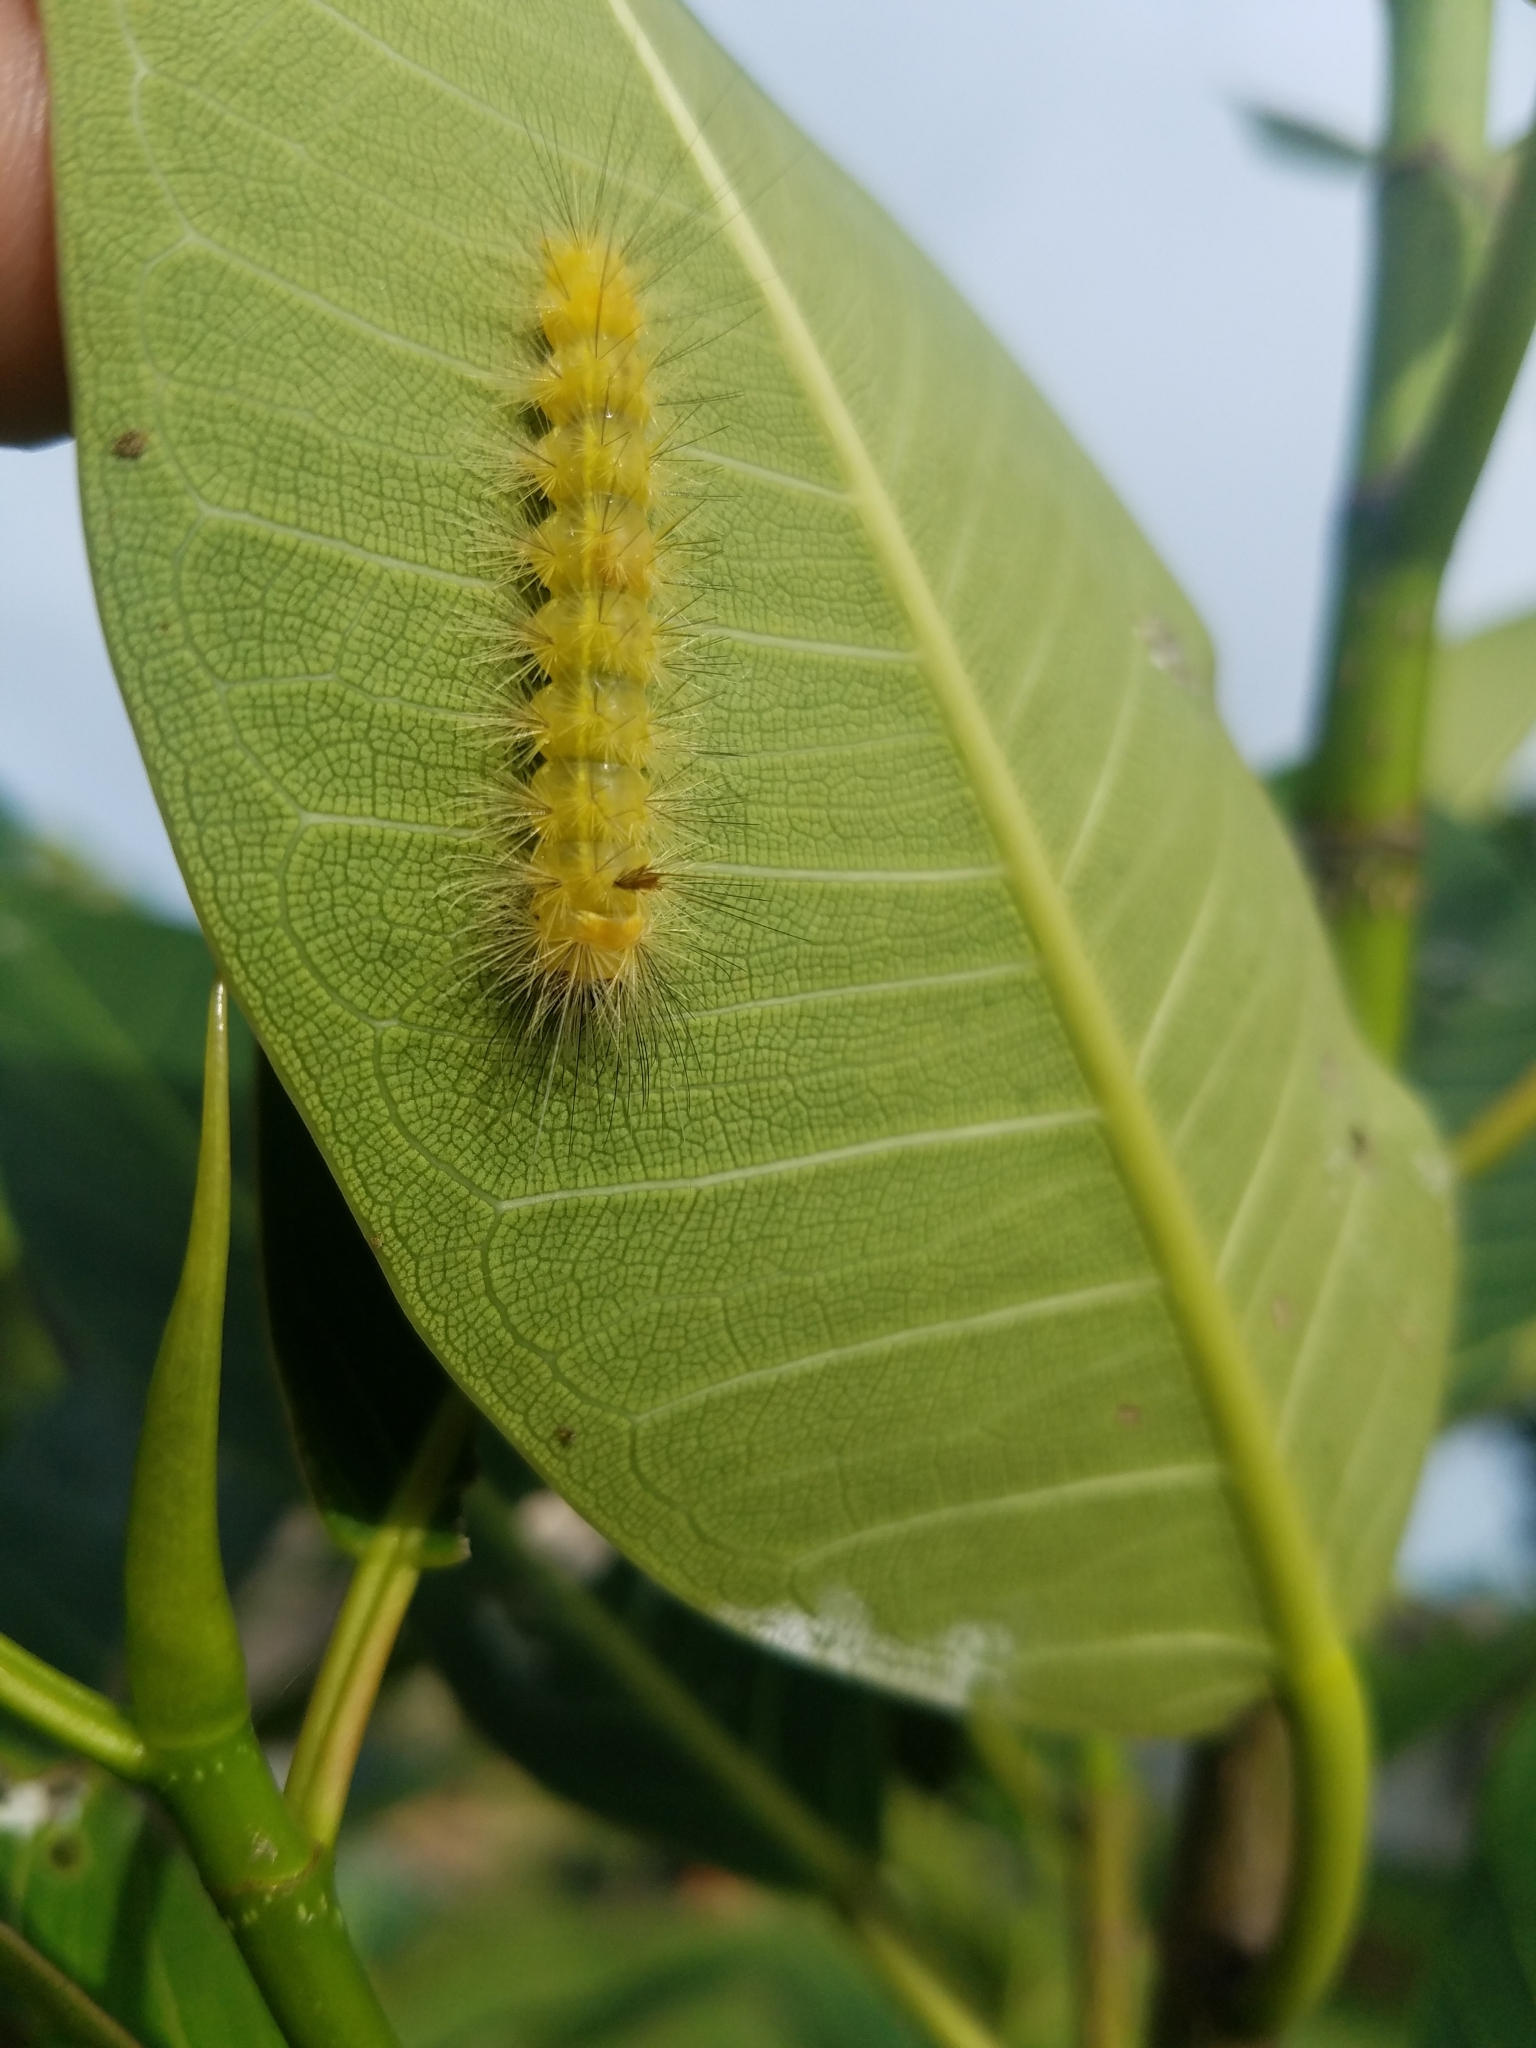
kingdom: Animalia
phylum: Arthropoda
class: Insecta
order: Lepidoptera
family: Erebidae
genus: Lymire
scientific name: Lymire edwardsii
